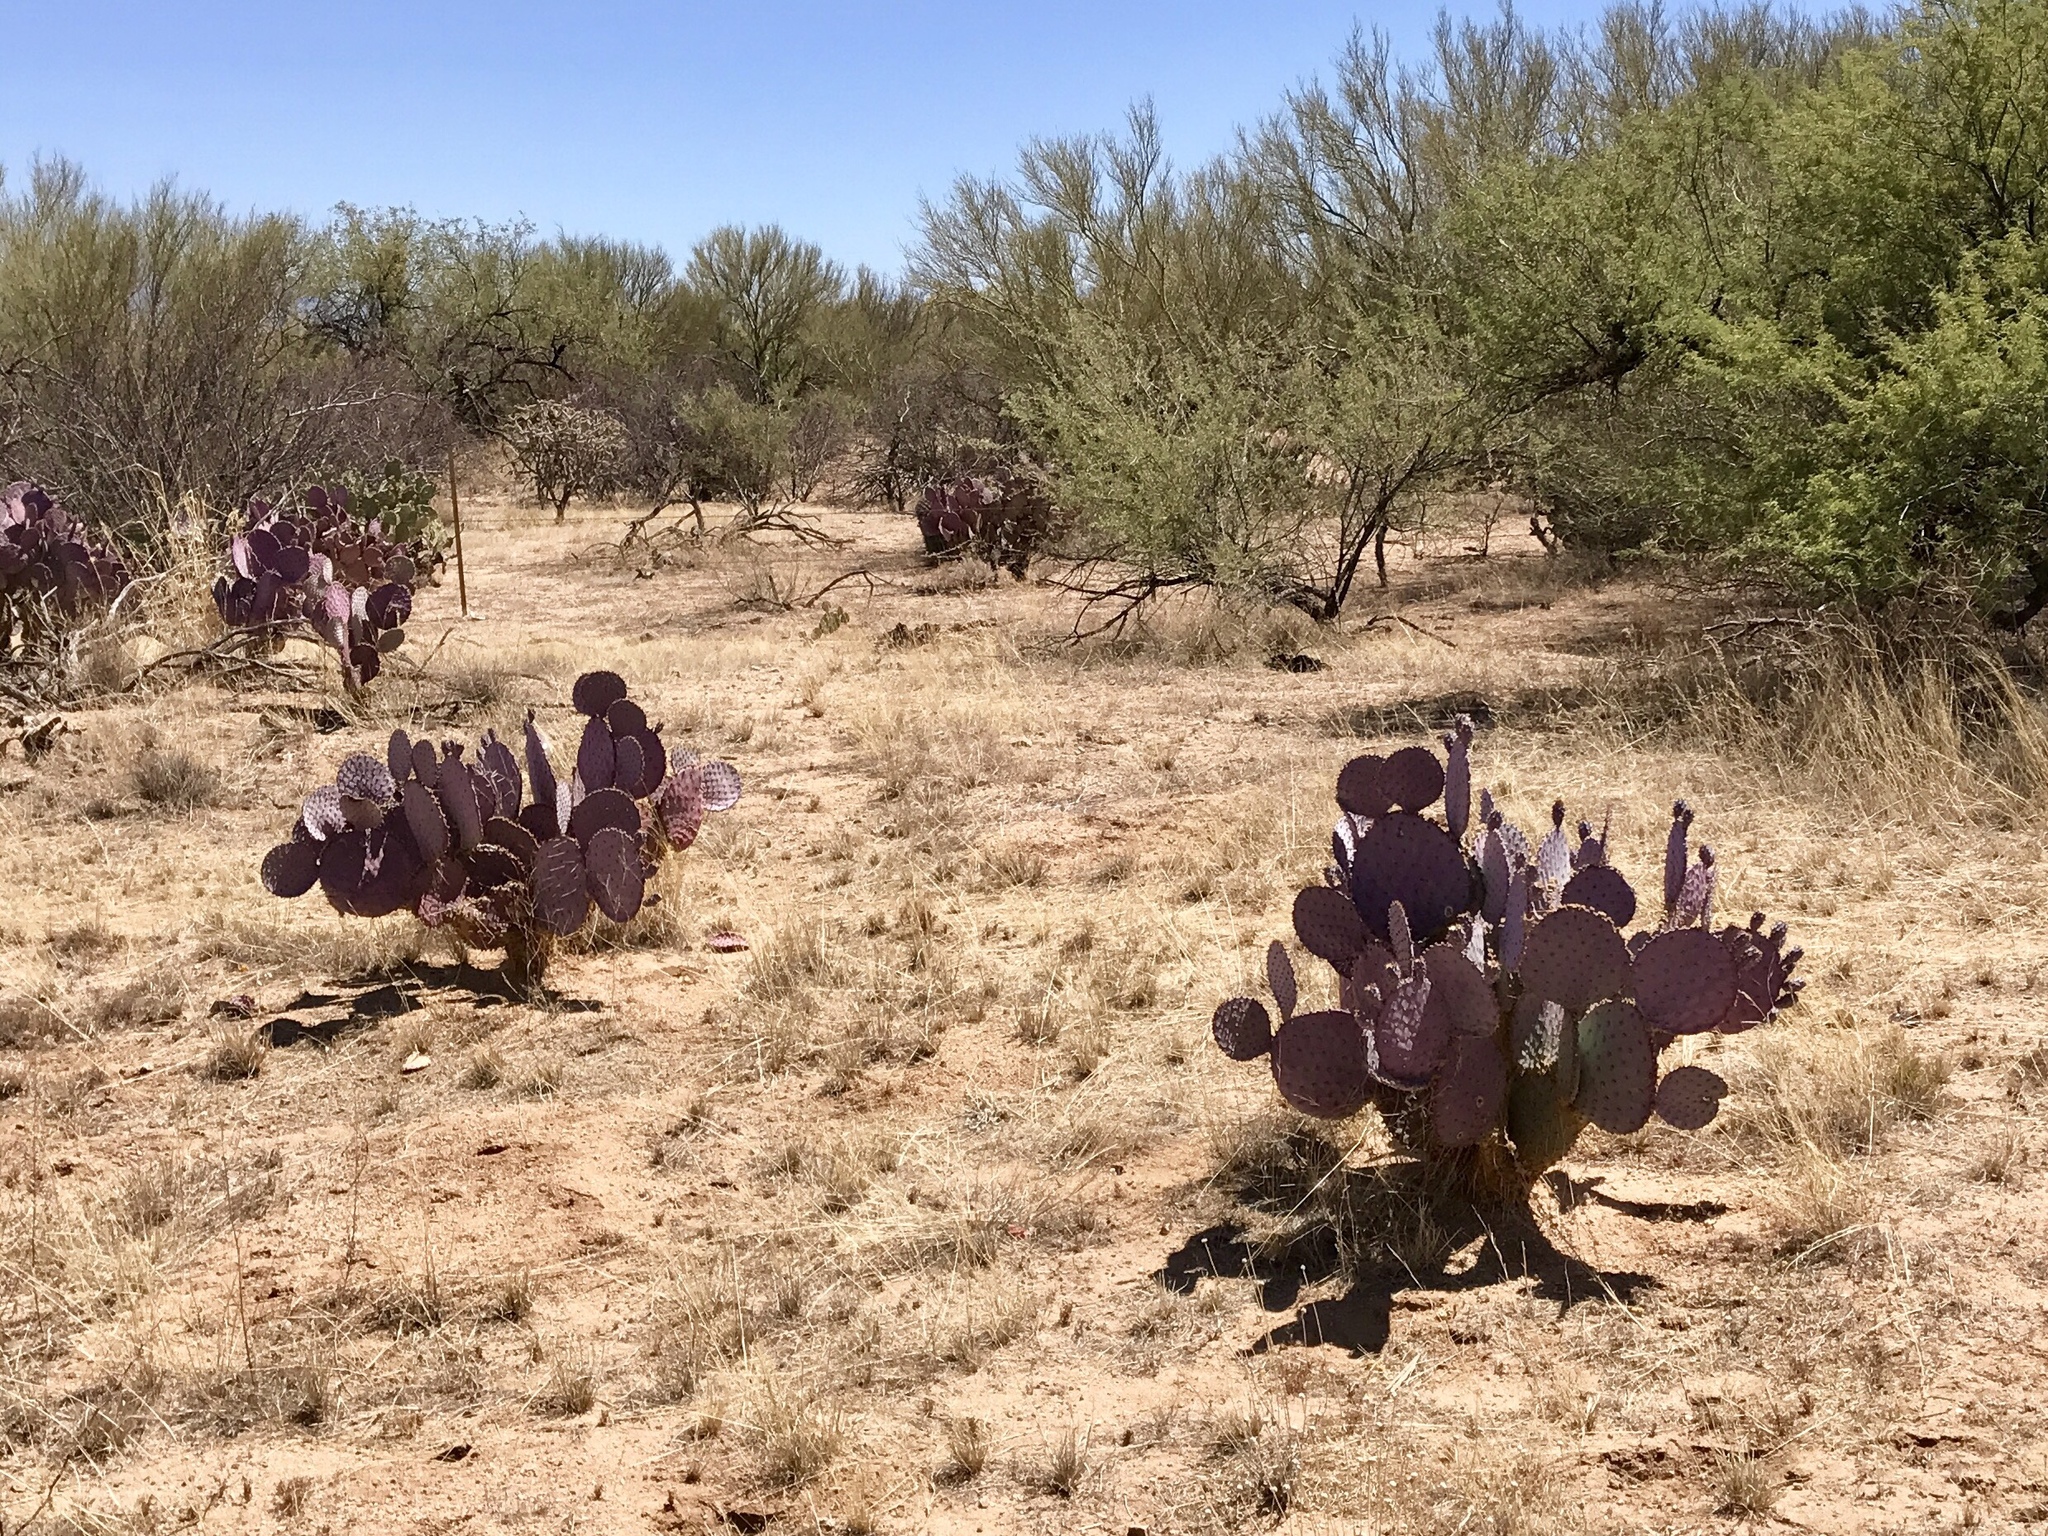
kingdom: Plantae
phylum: Tracheophyta
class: Magnoliopsida
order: Caryophyllales
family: Cactaceae
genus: Opuntia
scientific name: Opuntia gosseliniana
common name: Violet prickly-pear
